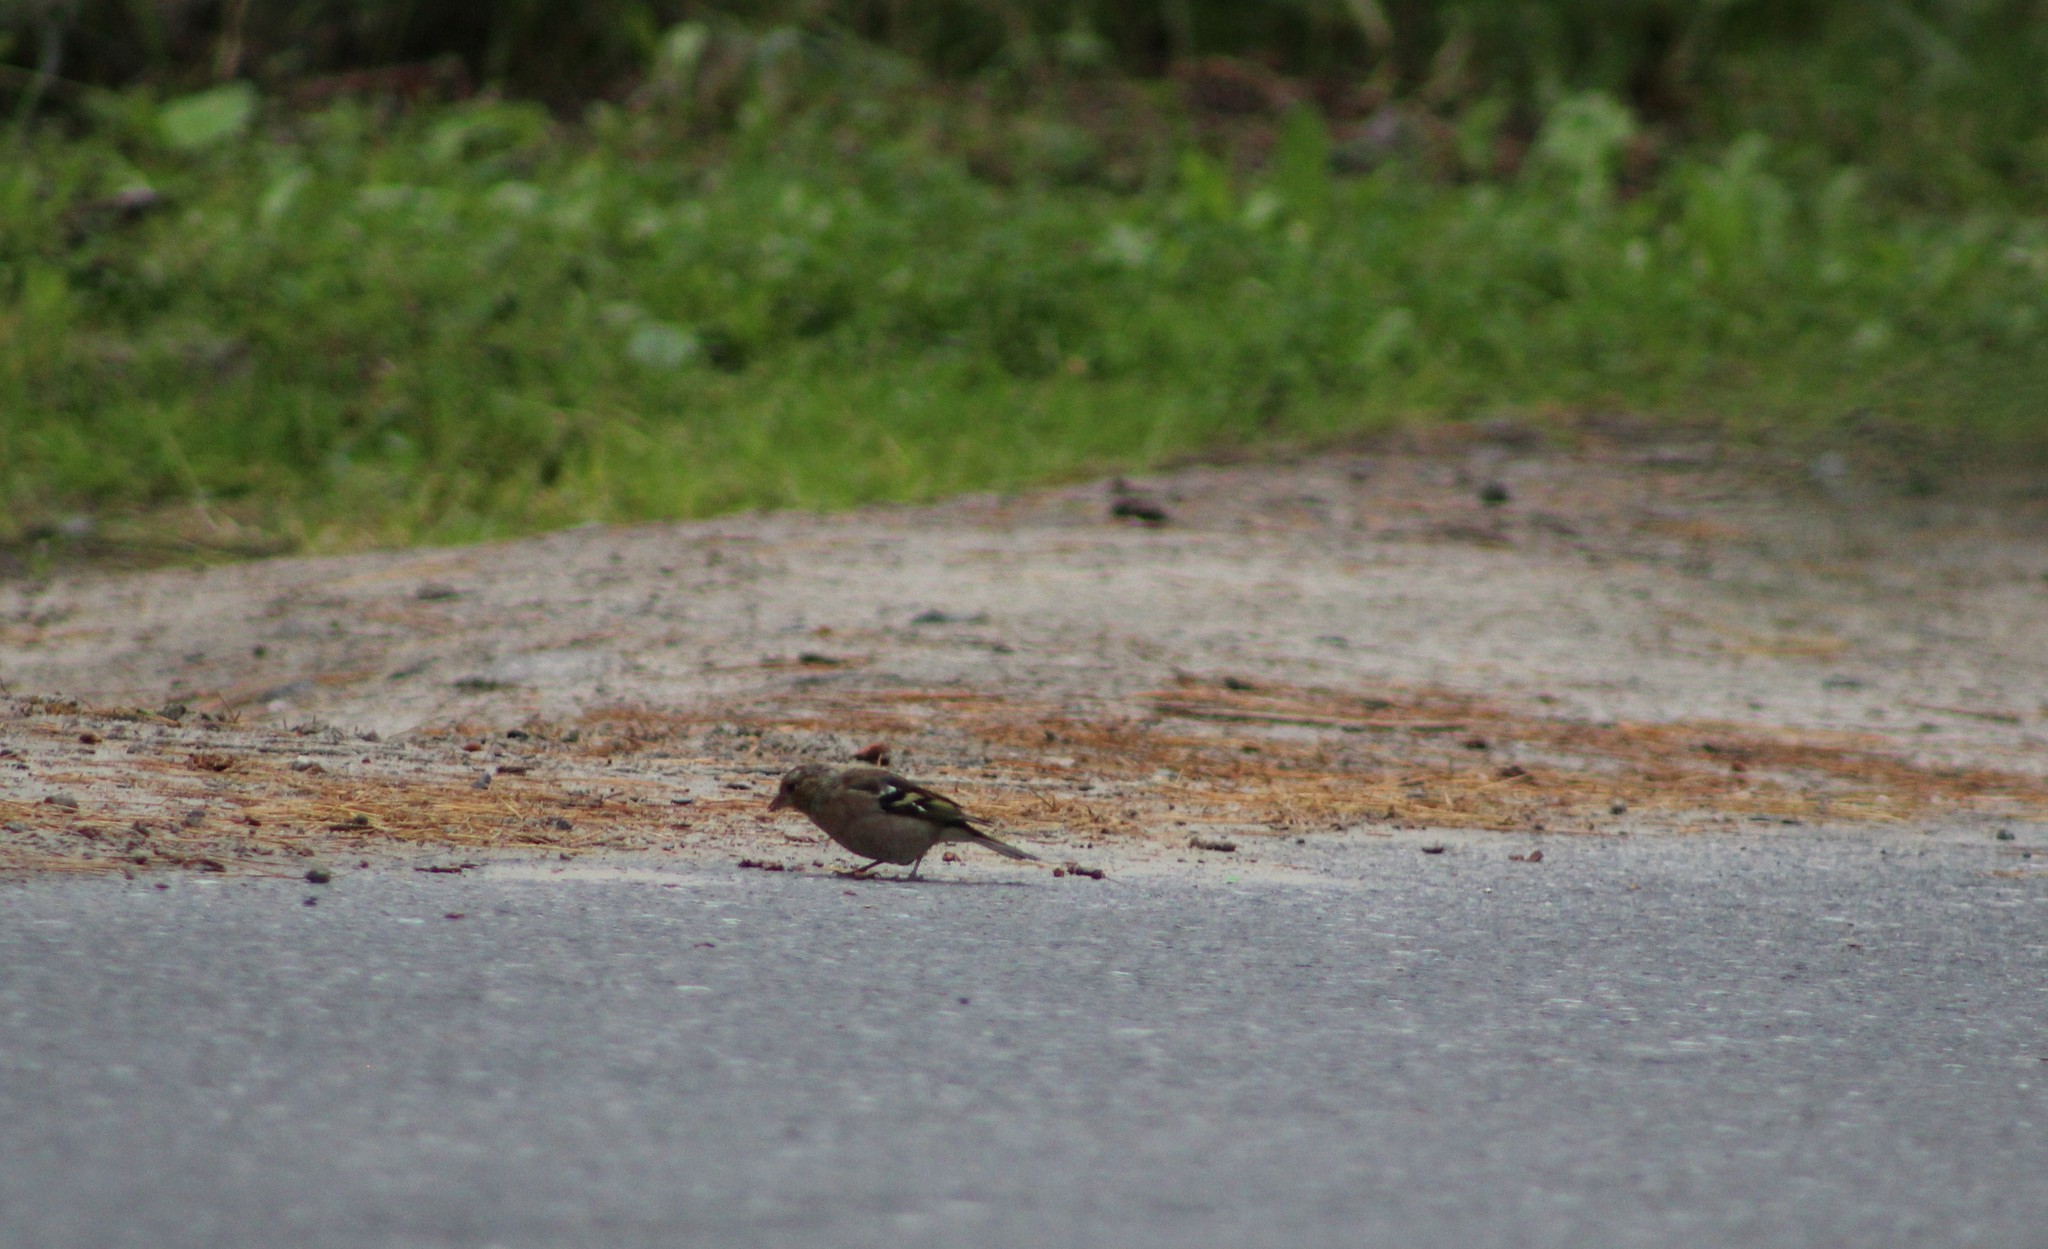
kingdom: Animalia
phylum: Chordata
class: Aves
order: Passeriformes
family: Fringillidae
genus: Fringilla
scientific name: Fringilla coelebs
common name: Common chaffinch
